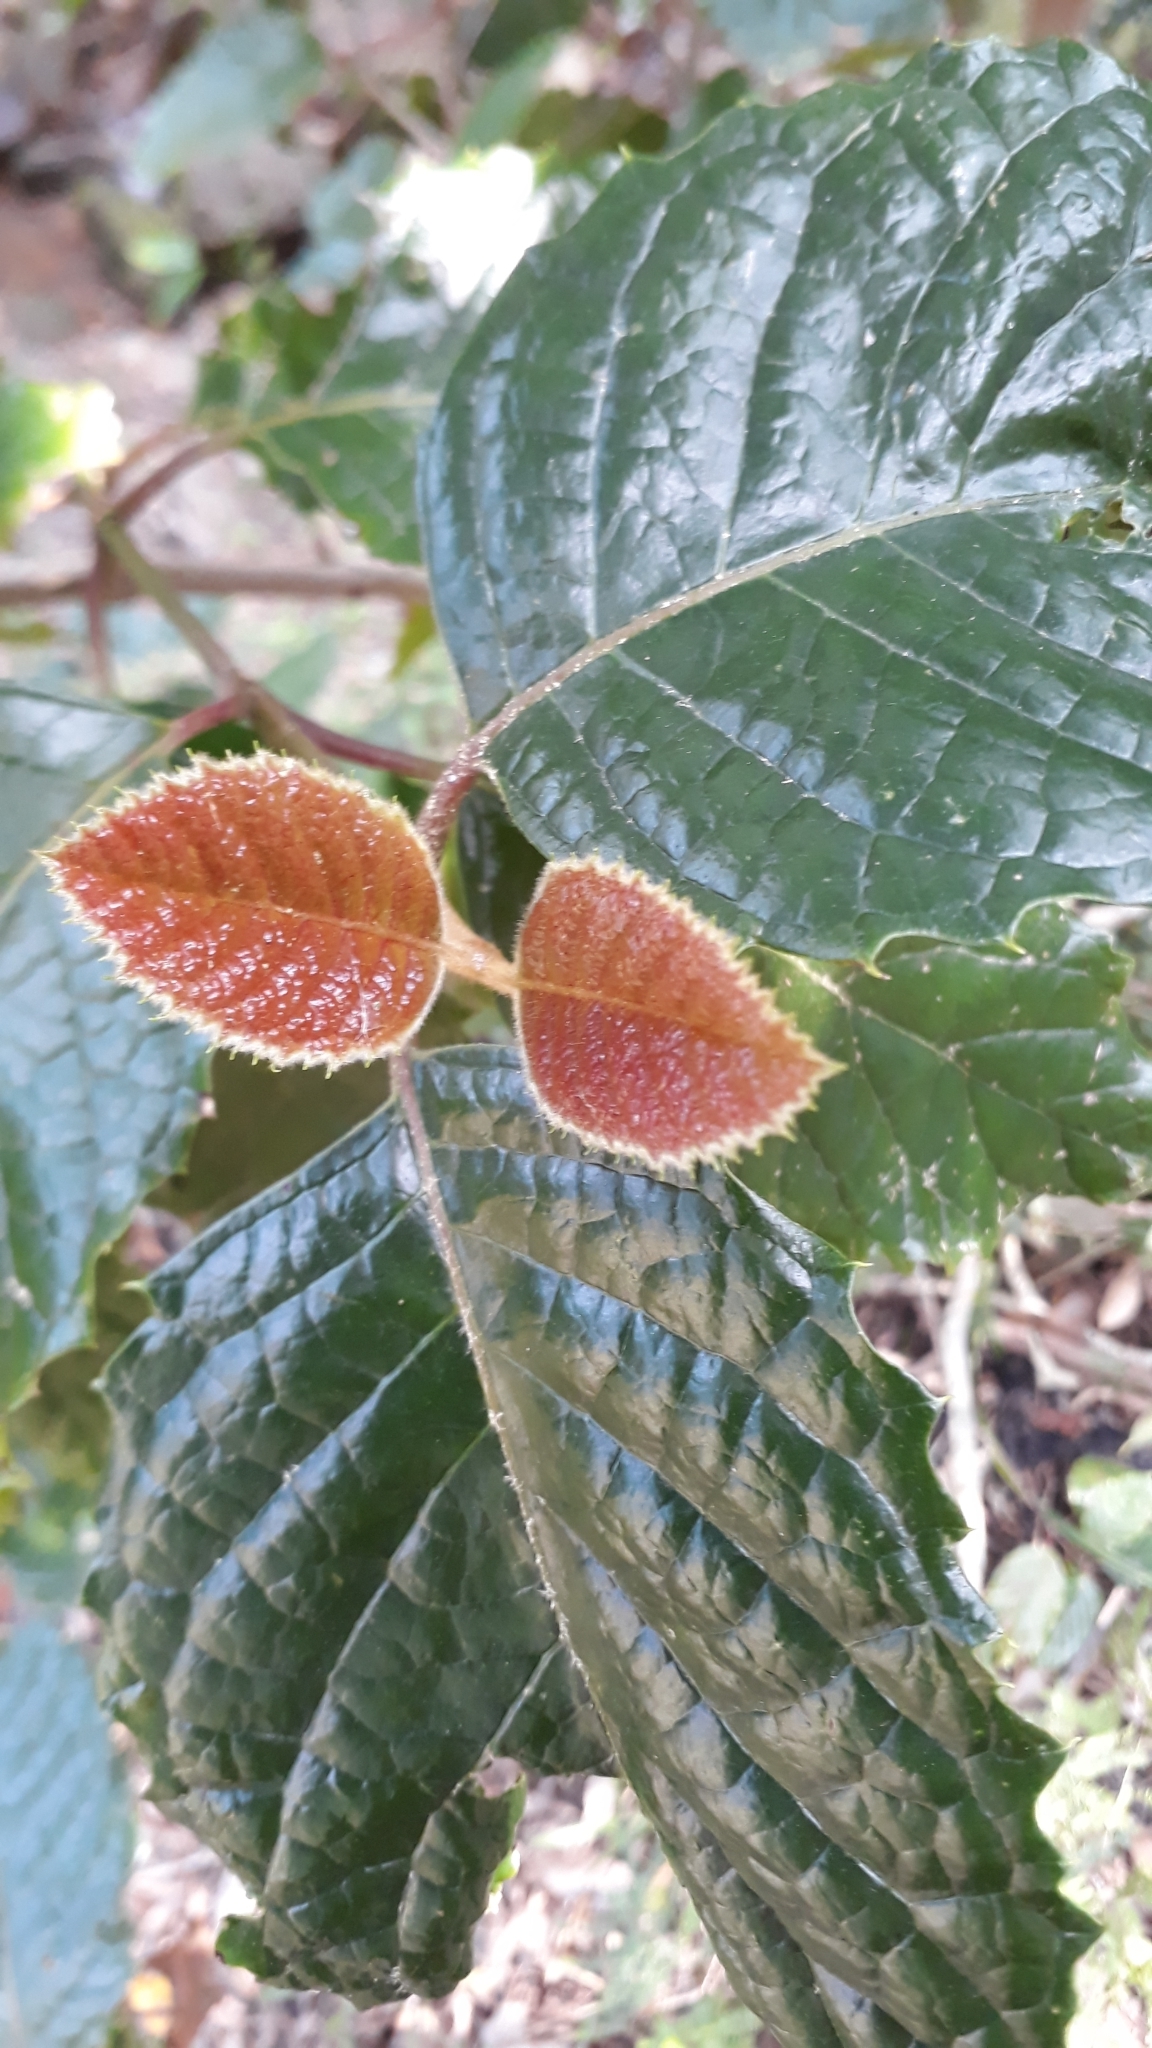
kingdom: Plantae
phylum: Tracheophyta
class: Magnoliopsida
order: Cornales
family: Curtisiaceae
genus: Curtisia
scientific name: Curtisia dentata
